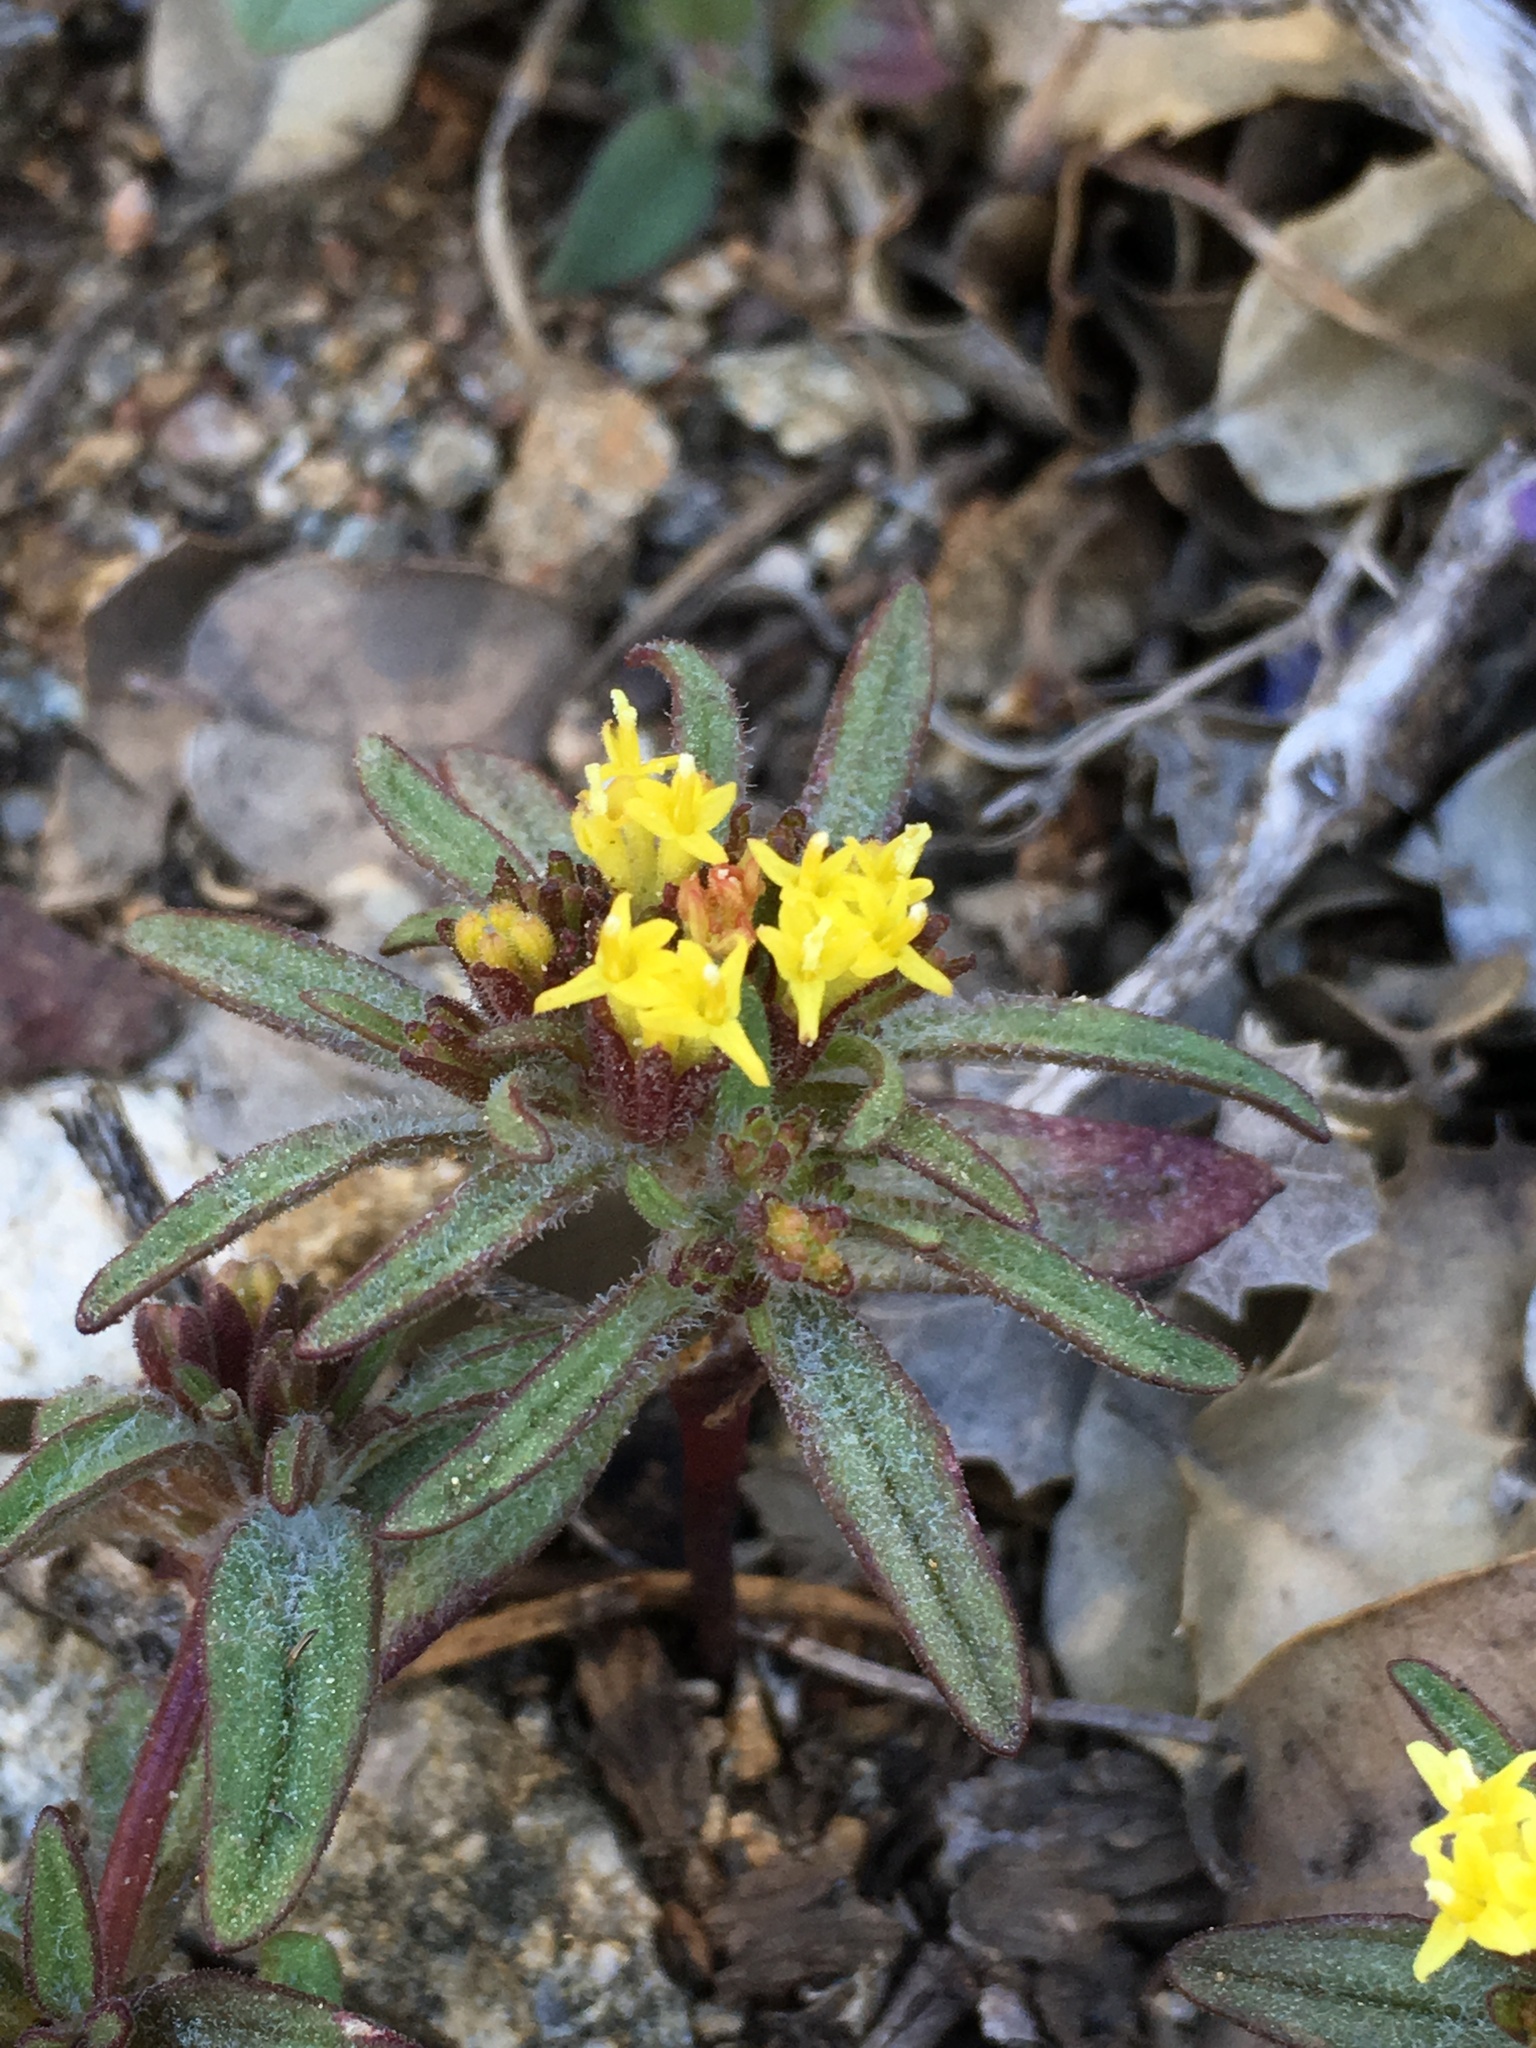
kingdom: Plantae
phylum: Tracheophyta
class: Magnoliopsida
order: Asterales
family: Asteraceae
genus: Orochaenactis
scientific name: Orochaenactis thysanocarpha
